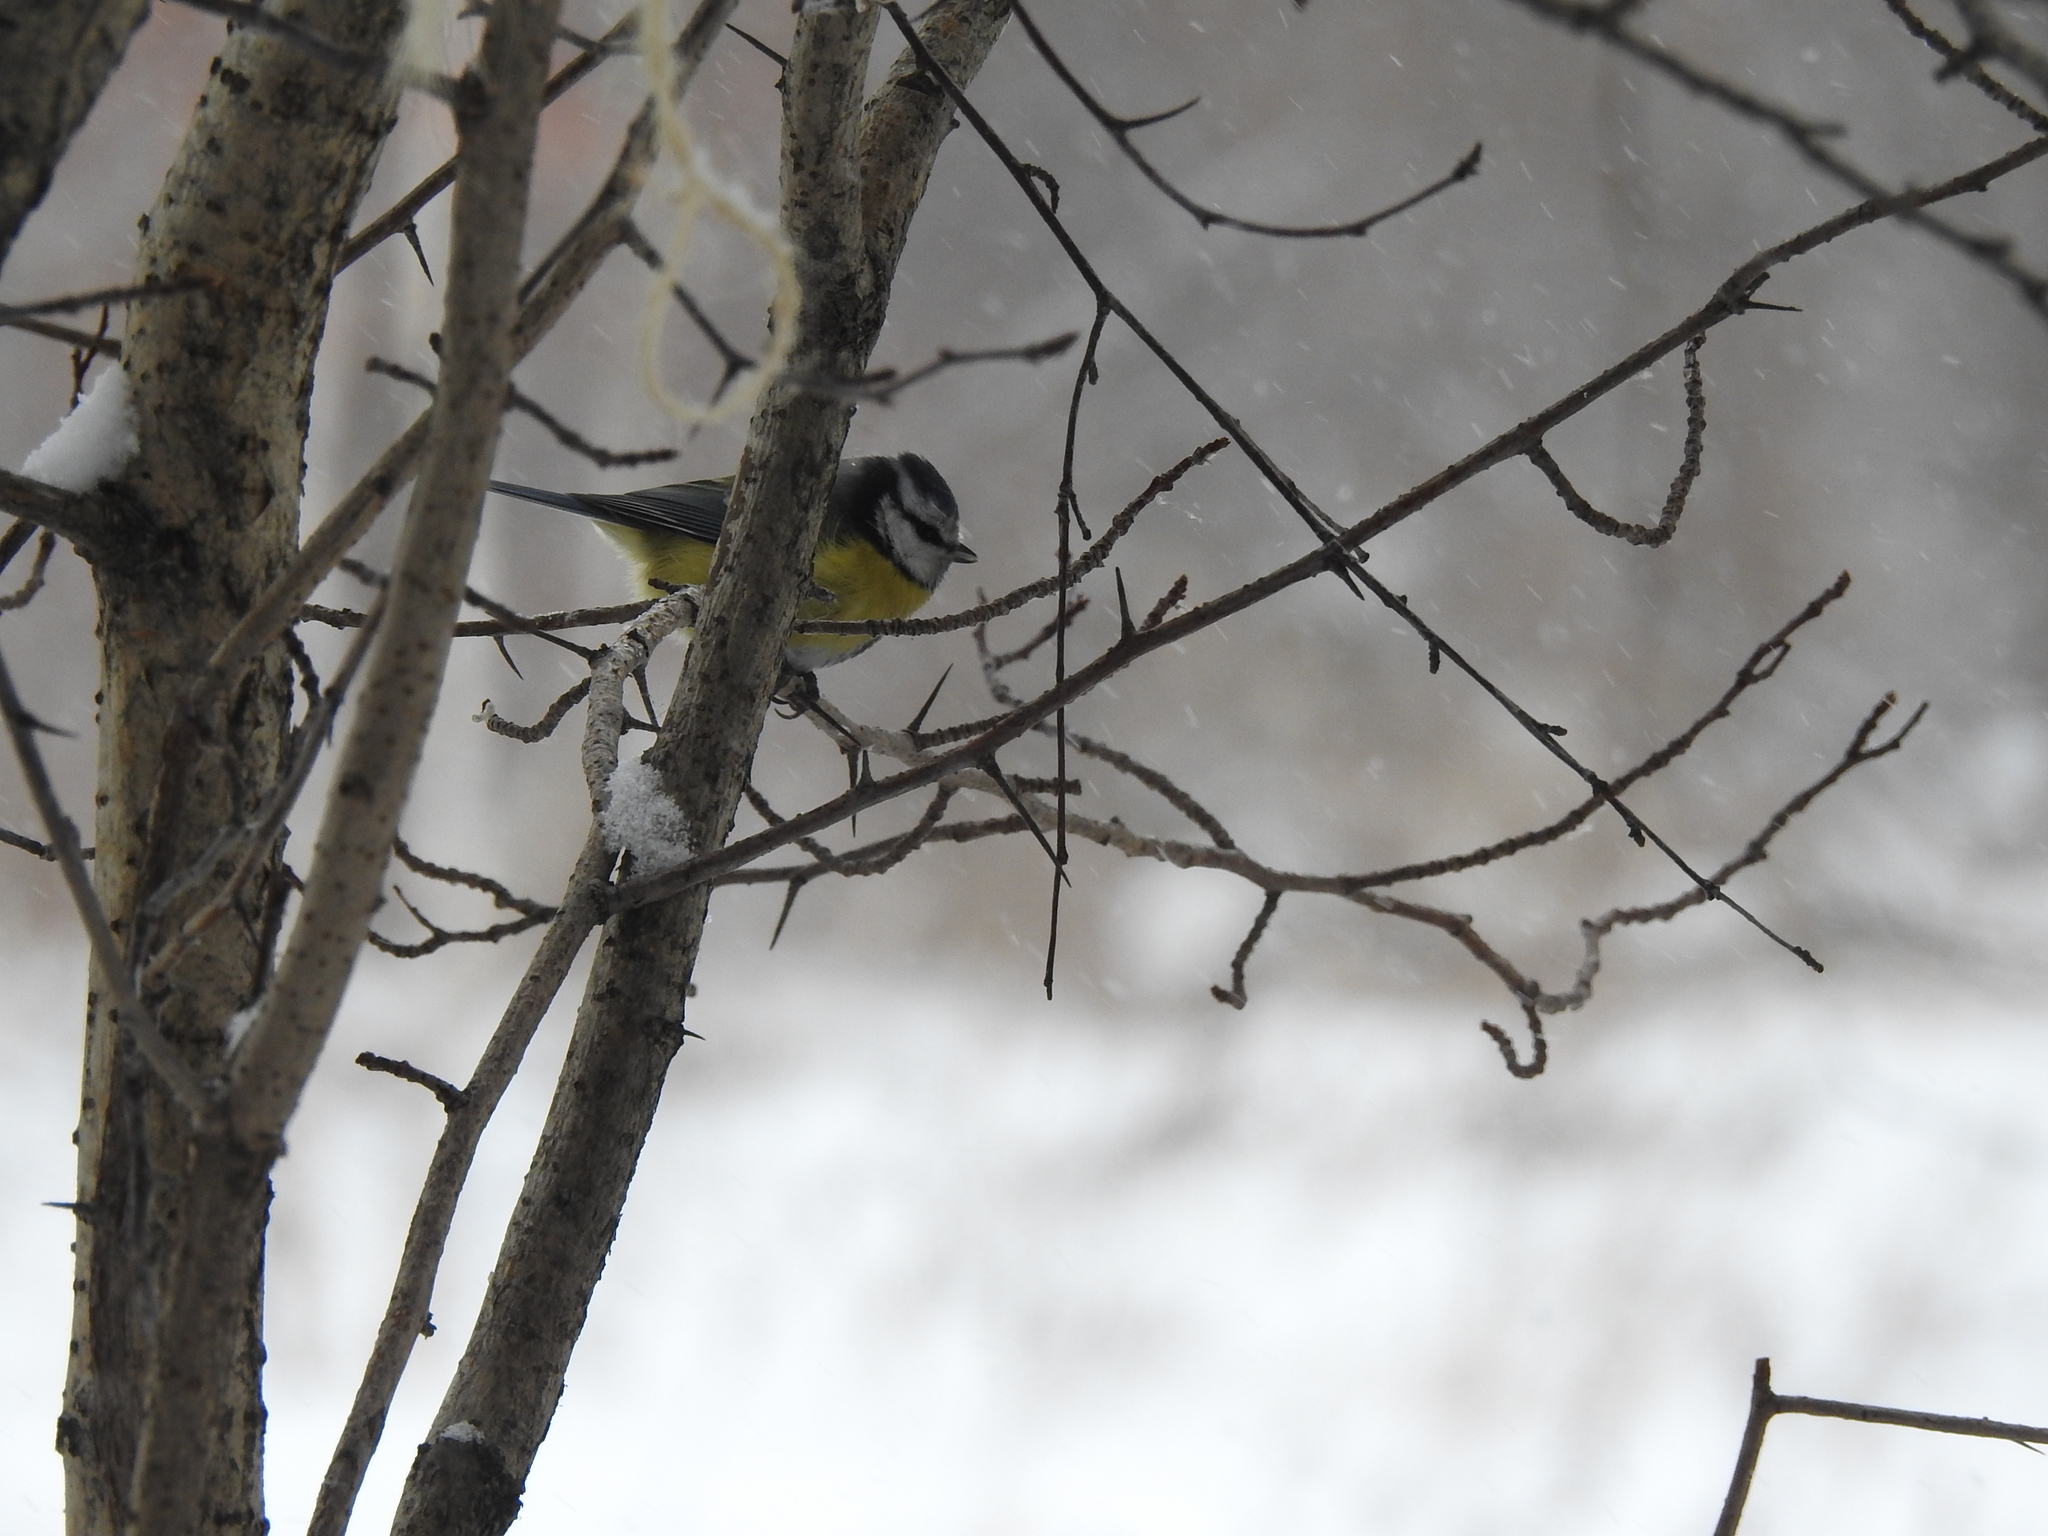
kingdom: Animalia
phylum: Chordata
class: Aves
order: Passeriformes
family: Paridae
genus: Cyanistes
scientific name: Cyanistes caeruleus
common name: Eurasian blue tit
